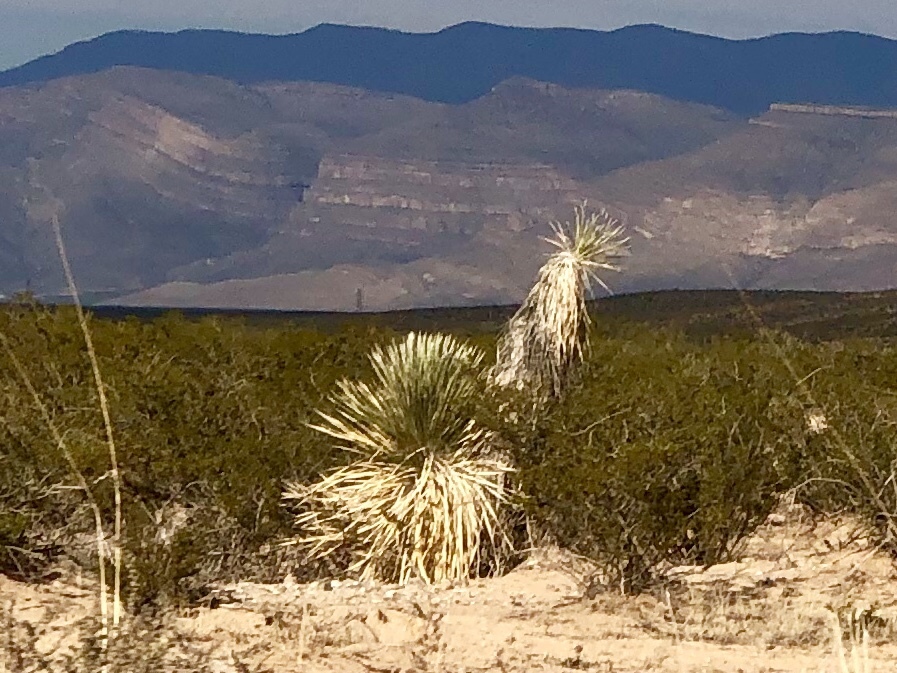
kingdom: Plantae
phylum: Tracheophyta
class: Liliopsida
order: Asparagales
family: Asparagaceae
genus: Yucca
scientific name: Yucca elata
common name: Palmella
